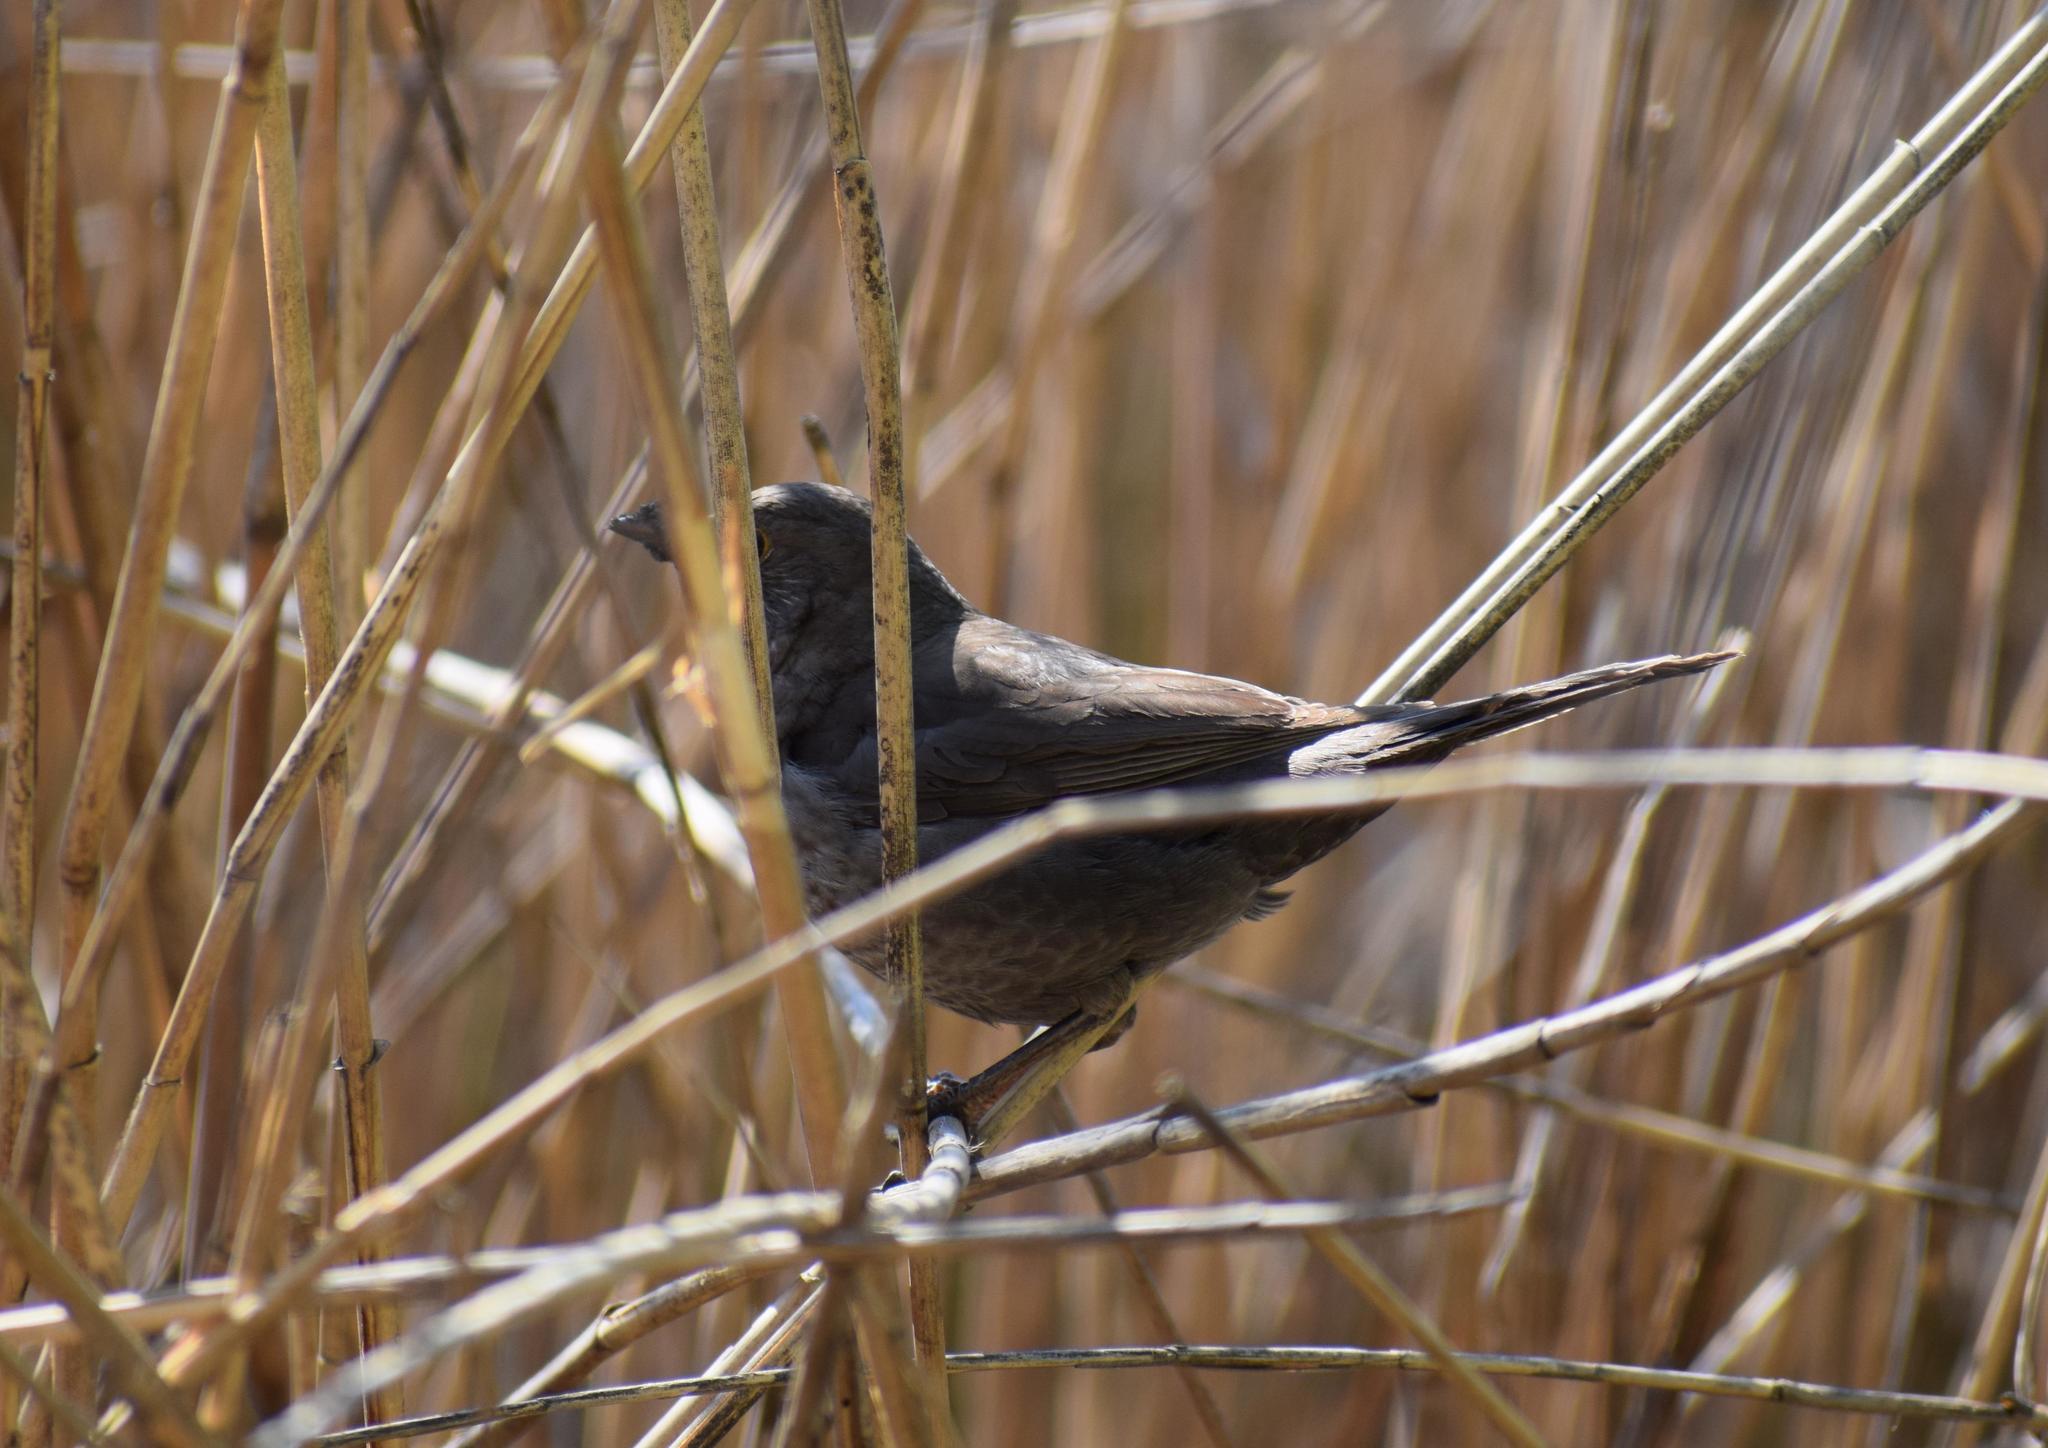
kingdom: Animalia
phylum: Chordata
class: Aves
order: Passeriformes
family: Turdidae
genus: Turdus
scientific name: Turdus merula
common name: Common blackbird
